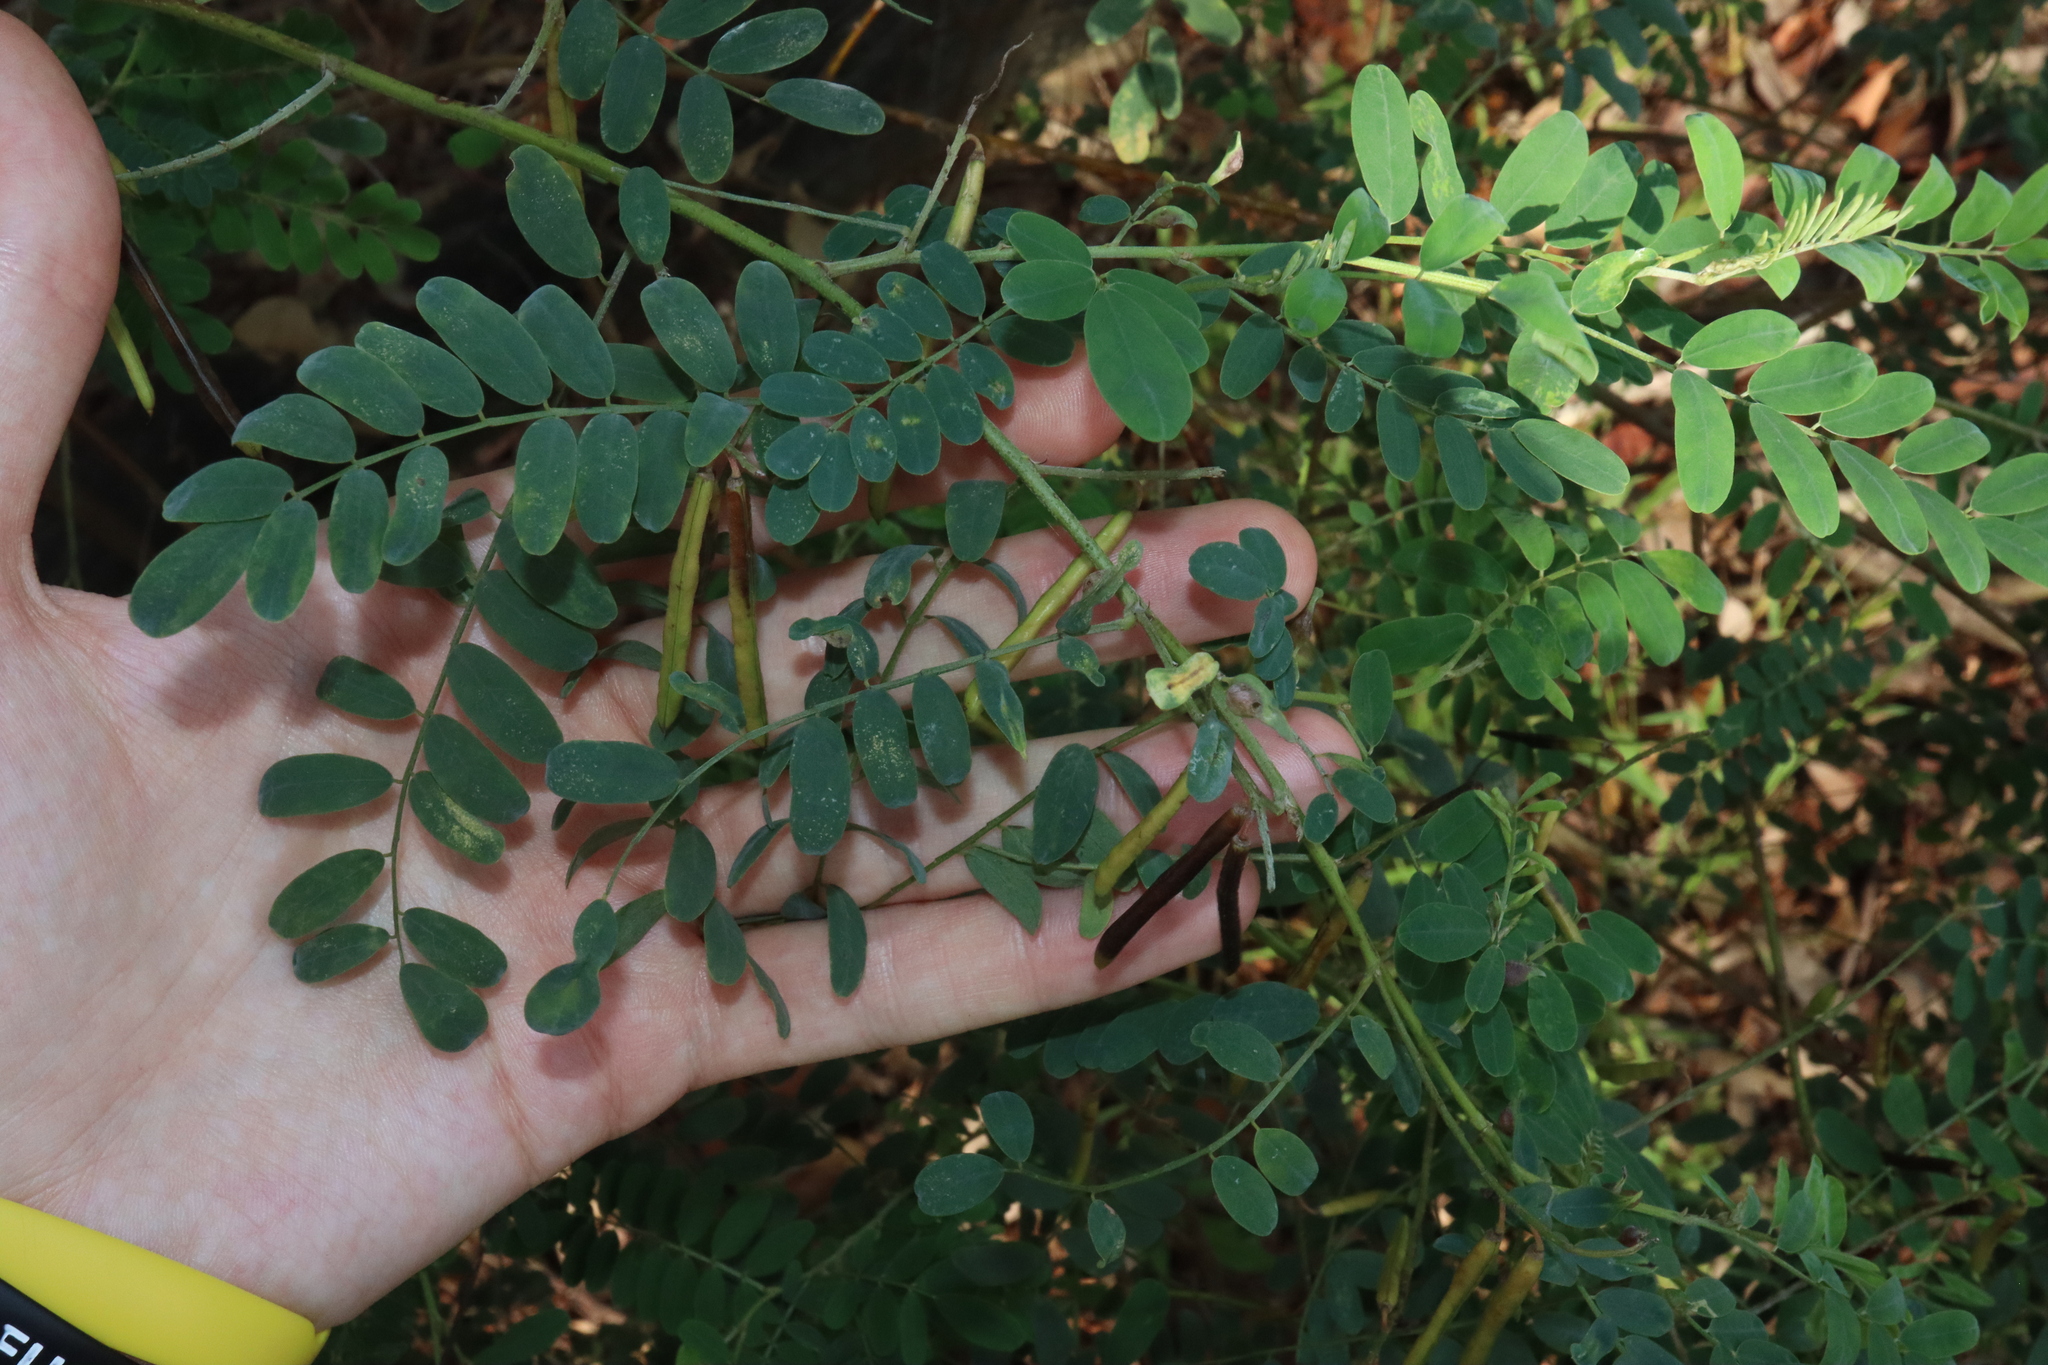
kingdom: Plantae
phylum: Tracheophyta
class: Magnoliopsida
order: Fabales
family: Fabaceae
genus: Indigofera
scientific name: Indigofera australis
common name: Australian indigo
